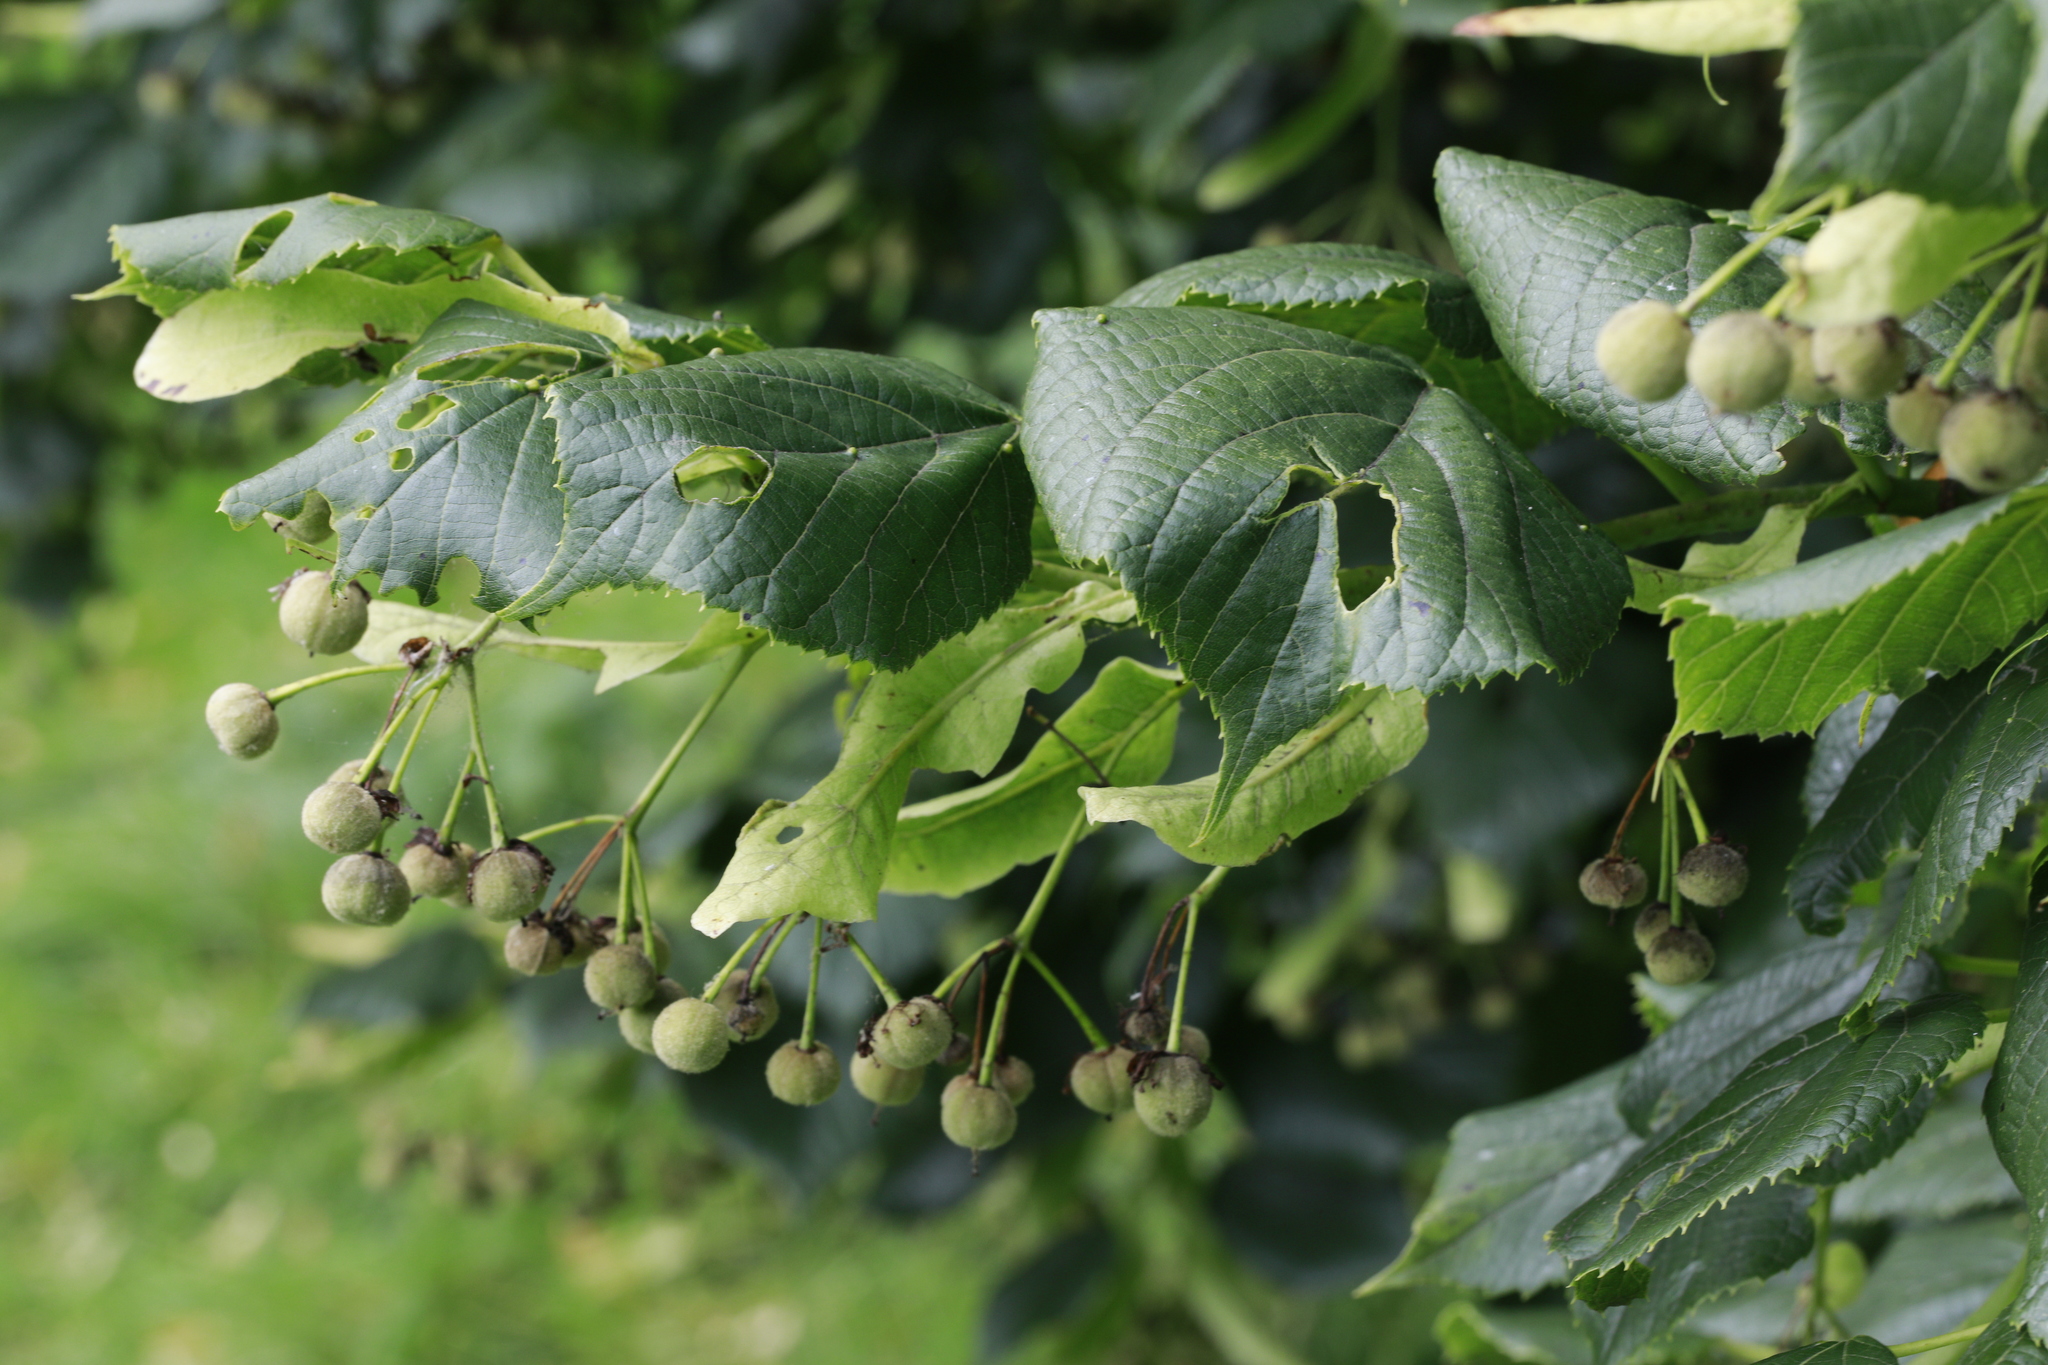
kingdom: Plantae
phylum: Tracheophyta
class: Magnoliopsida
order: Malvales
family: Malvaceae
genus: Tilia
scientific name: Tilia europaea
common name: European linden
